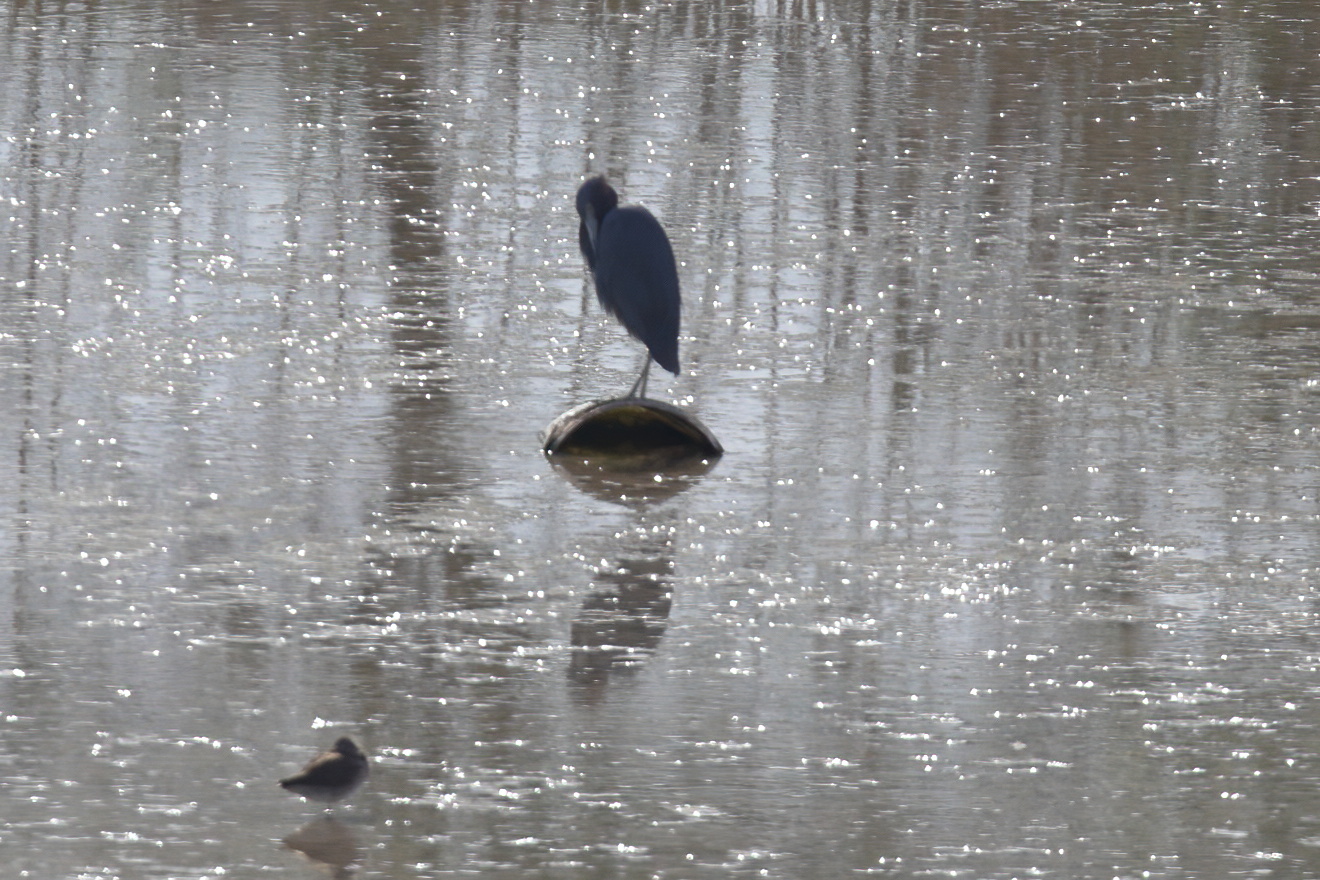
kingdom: Animalia
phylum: Chordata
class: Aves
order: Pelecaniformes
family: Ardeidae
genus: Egretta
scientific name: Egretta caerulea
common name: Little blue heron
